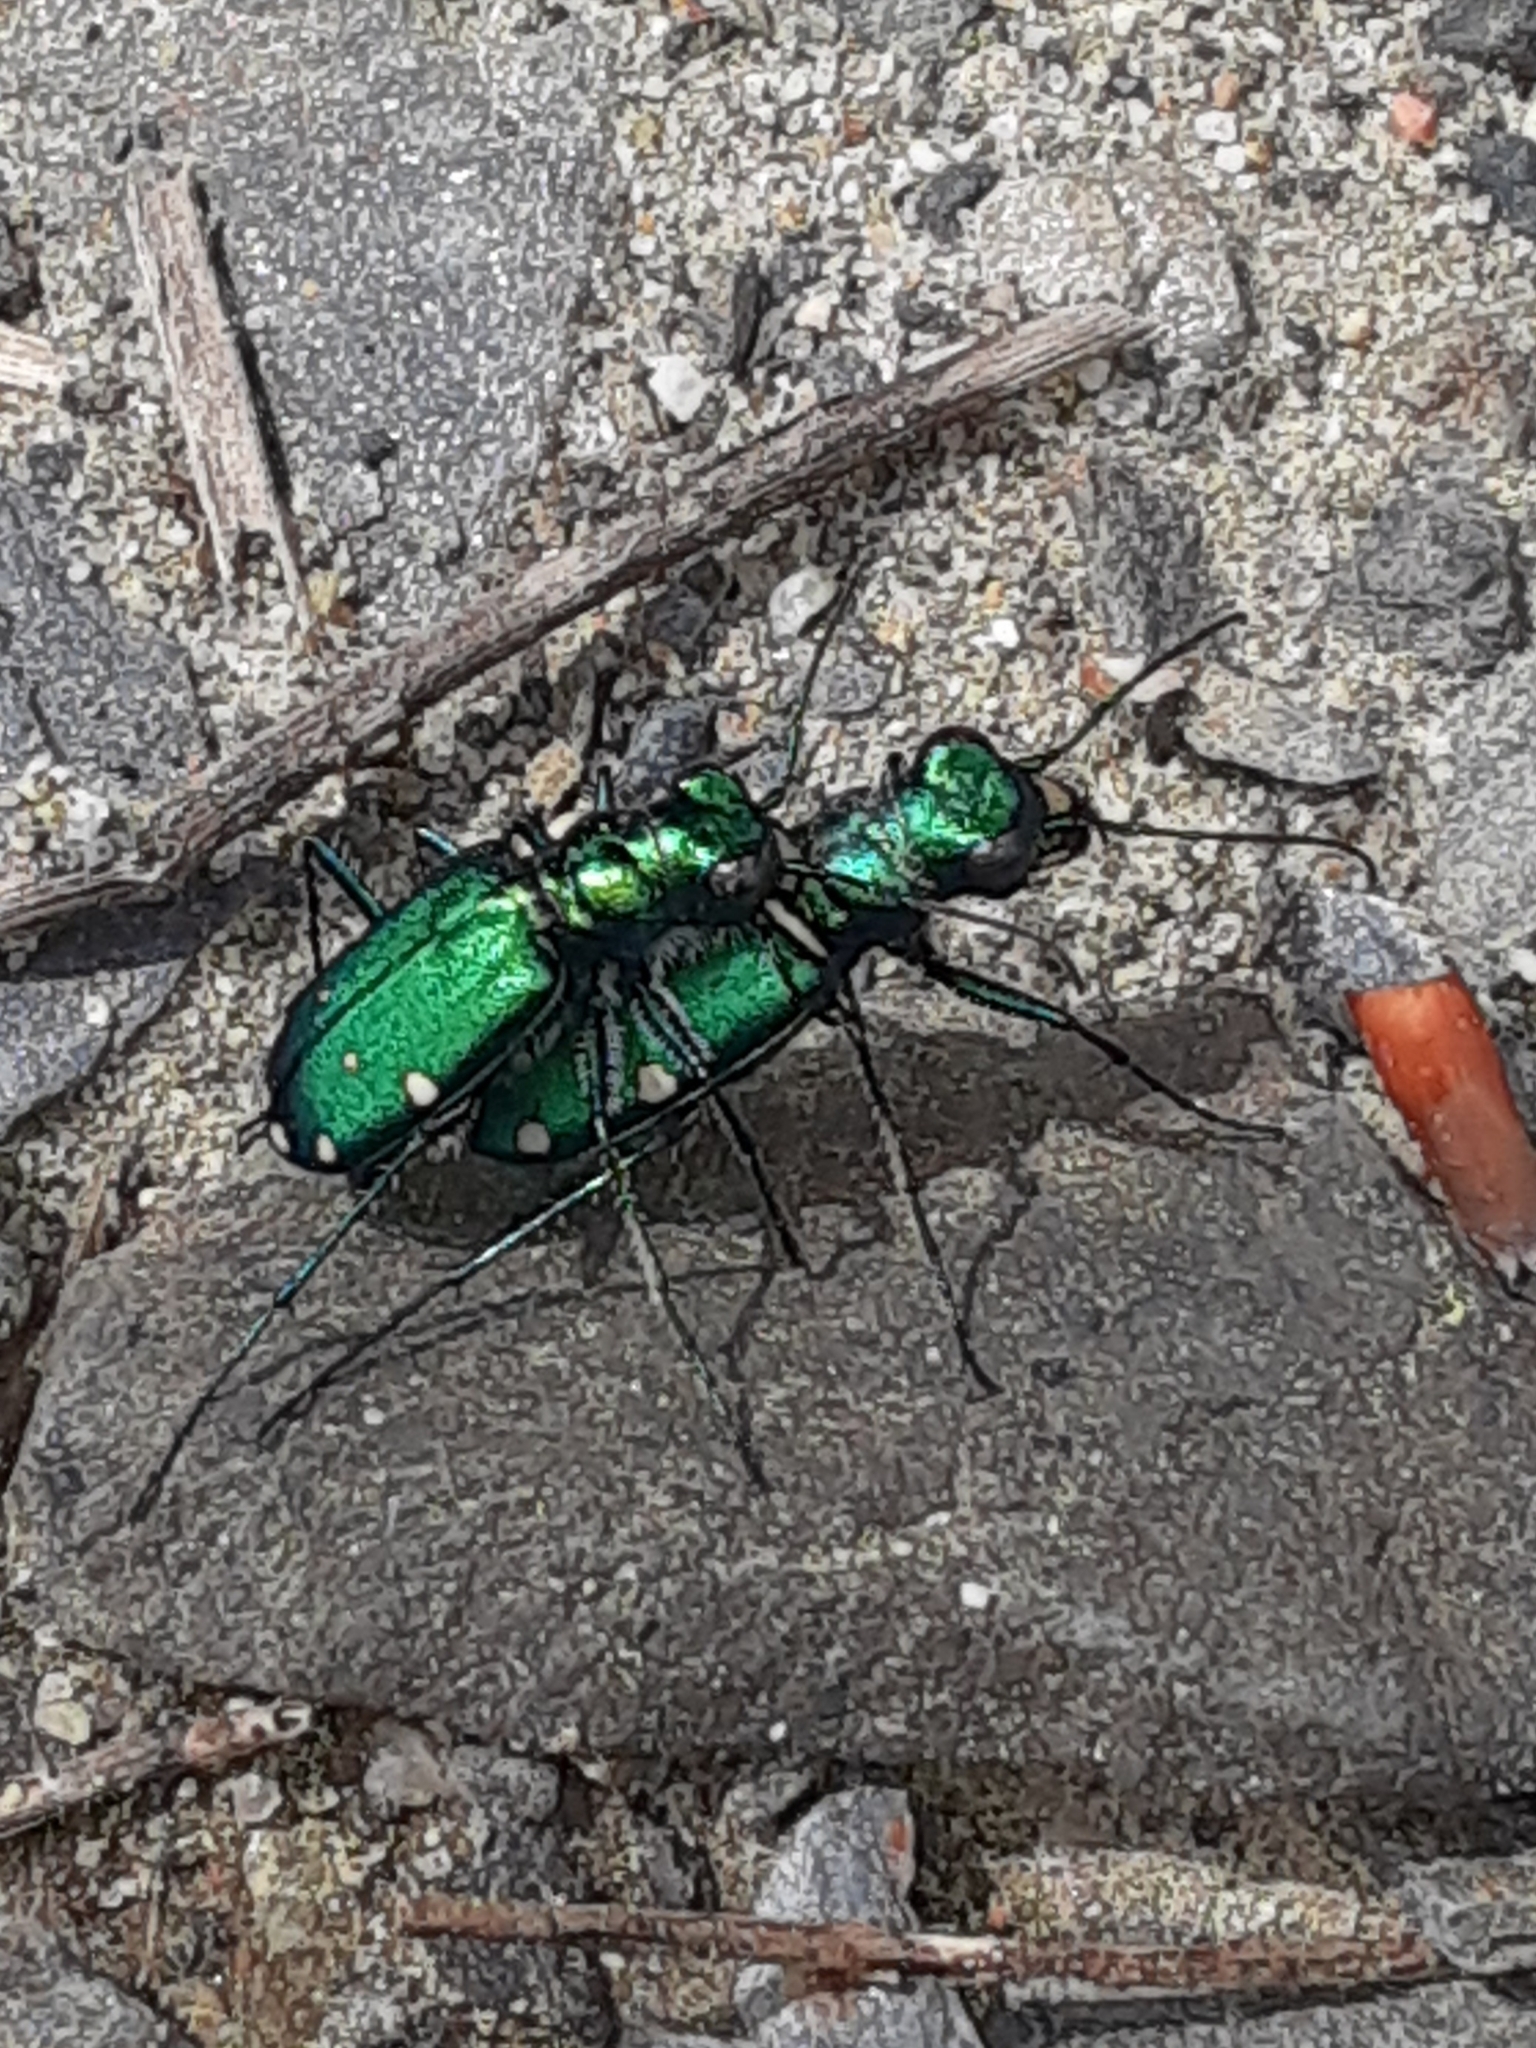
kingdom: Animalia
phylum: Arthropoda
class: Insecta
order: Coleoptera
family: Carabidae
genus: Cicindela
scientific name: Cicindela sexguttata
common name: Six-spotted tiger beetle
